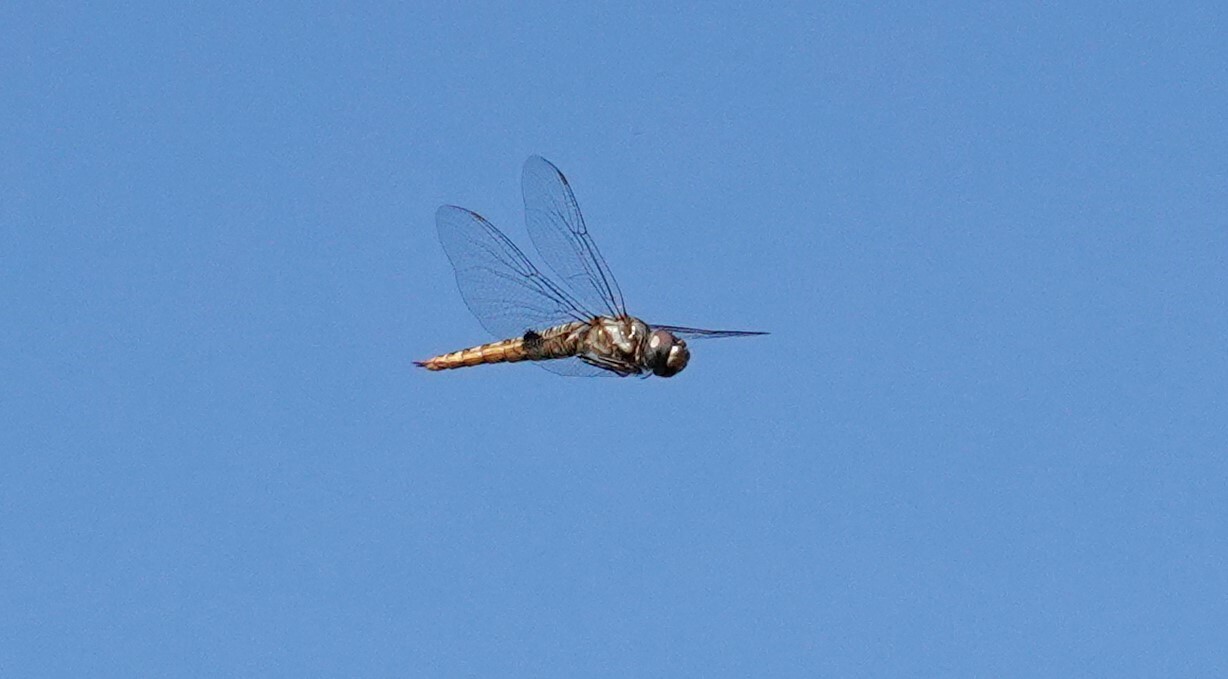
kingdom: Animalia
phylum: Arthropoda
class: Insecta
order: Odonata
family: Libellulidae
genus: Pantala
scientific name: Pantala hymenaea
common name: Spot-winged glider
